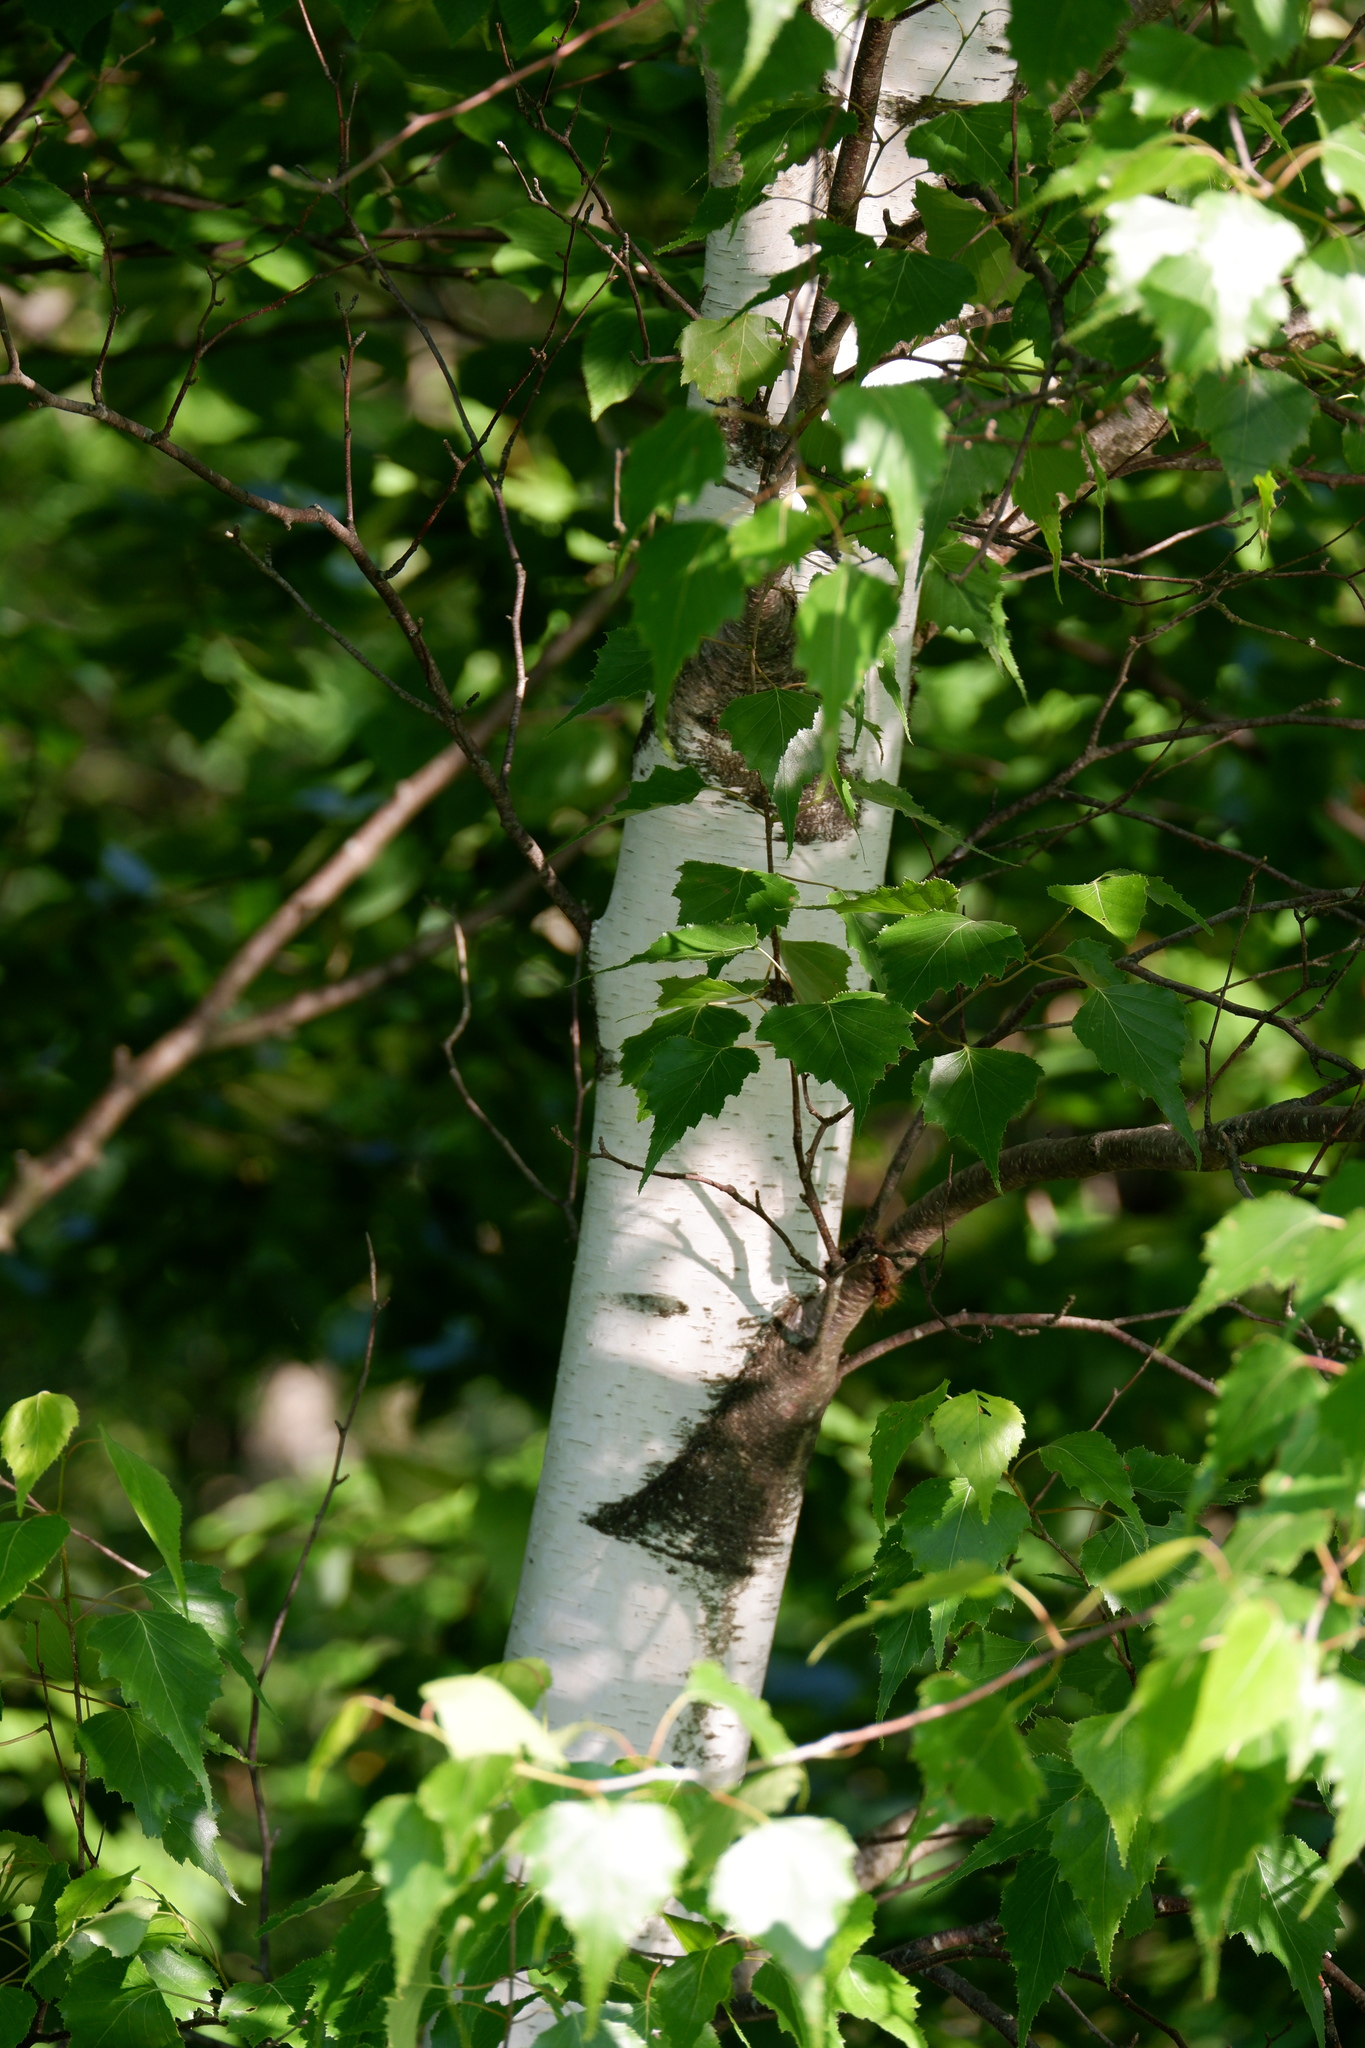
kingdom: Plantae
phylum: Tracheophyta
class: Magnoliopsida
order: Fagales
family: Betulaceae
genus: Betula
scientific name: Betula populifolia
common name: Fire birch
